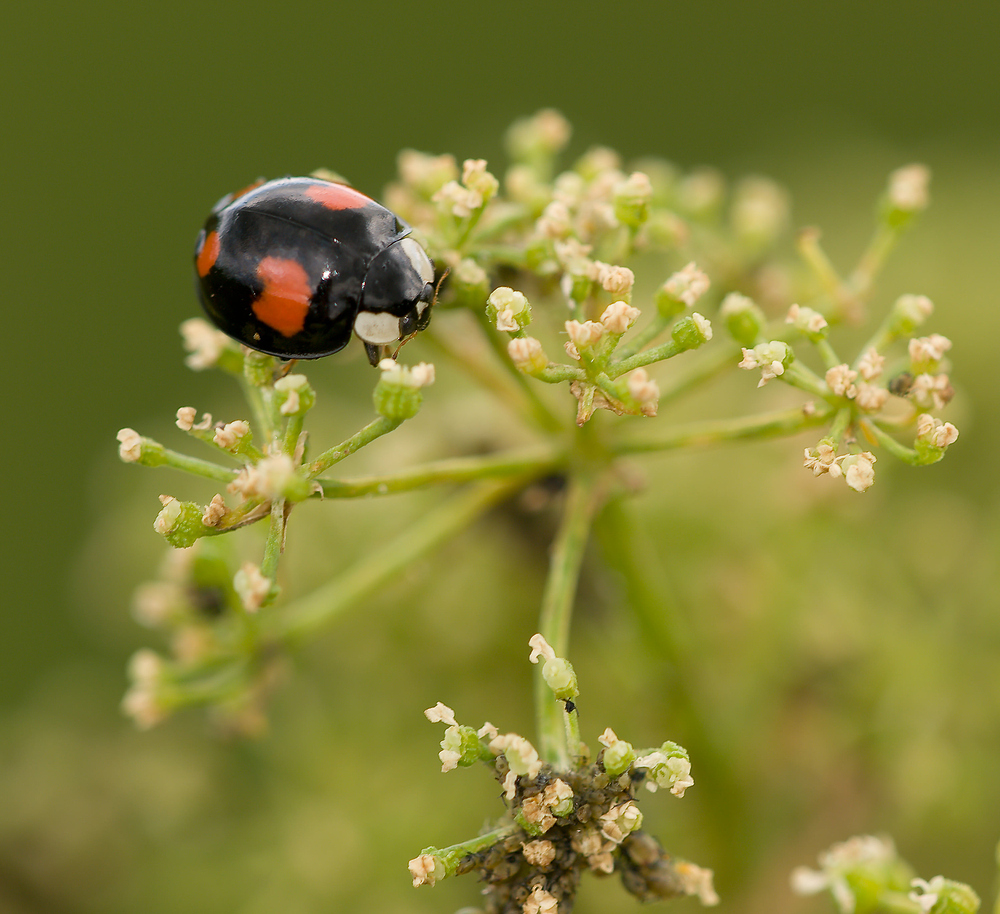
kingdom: Animalia
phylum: Arthropoda
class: Insecta
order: Coleoptera
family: Coccinellidae
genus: Harmonia
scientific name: Harmonia axyridis
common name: Harlequin ladybird
